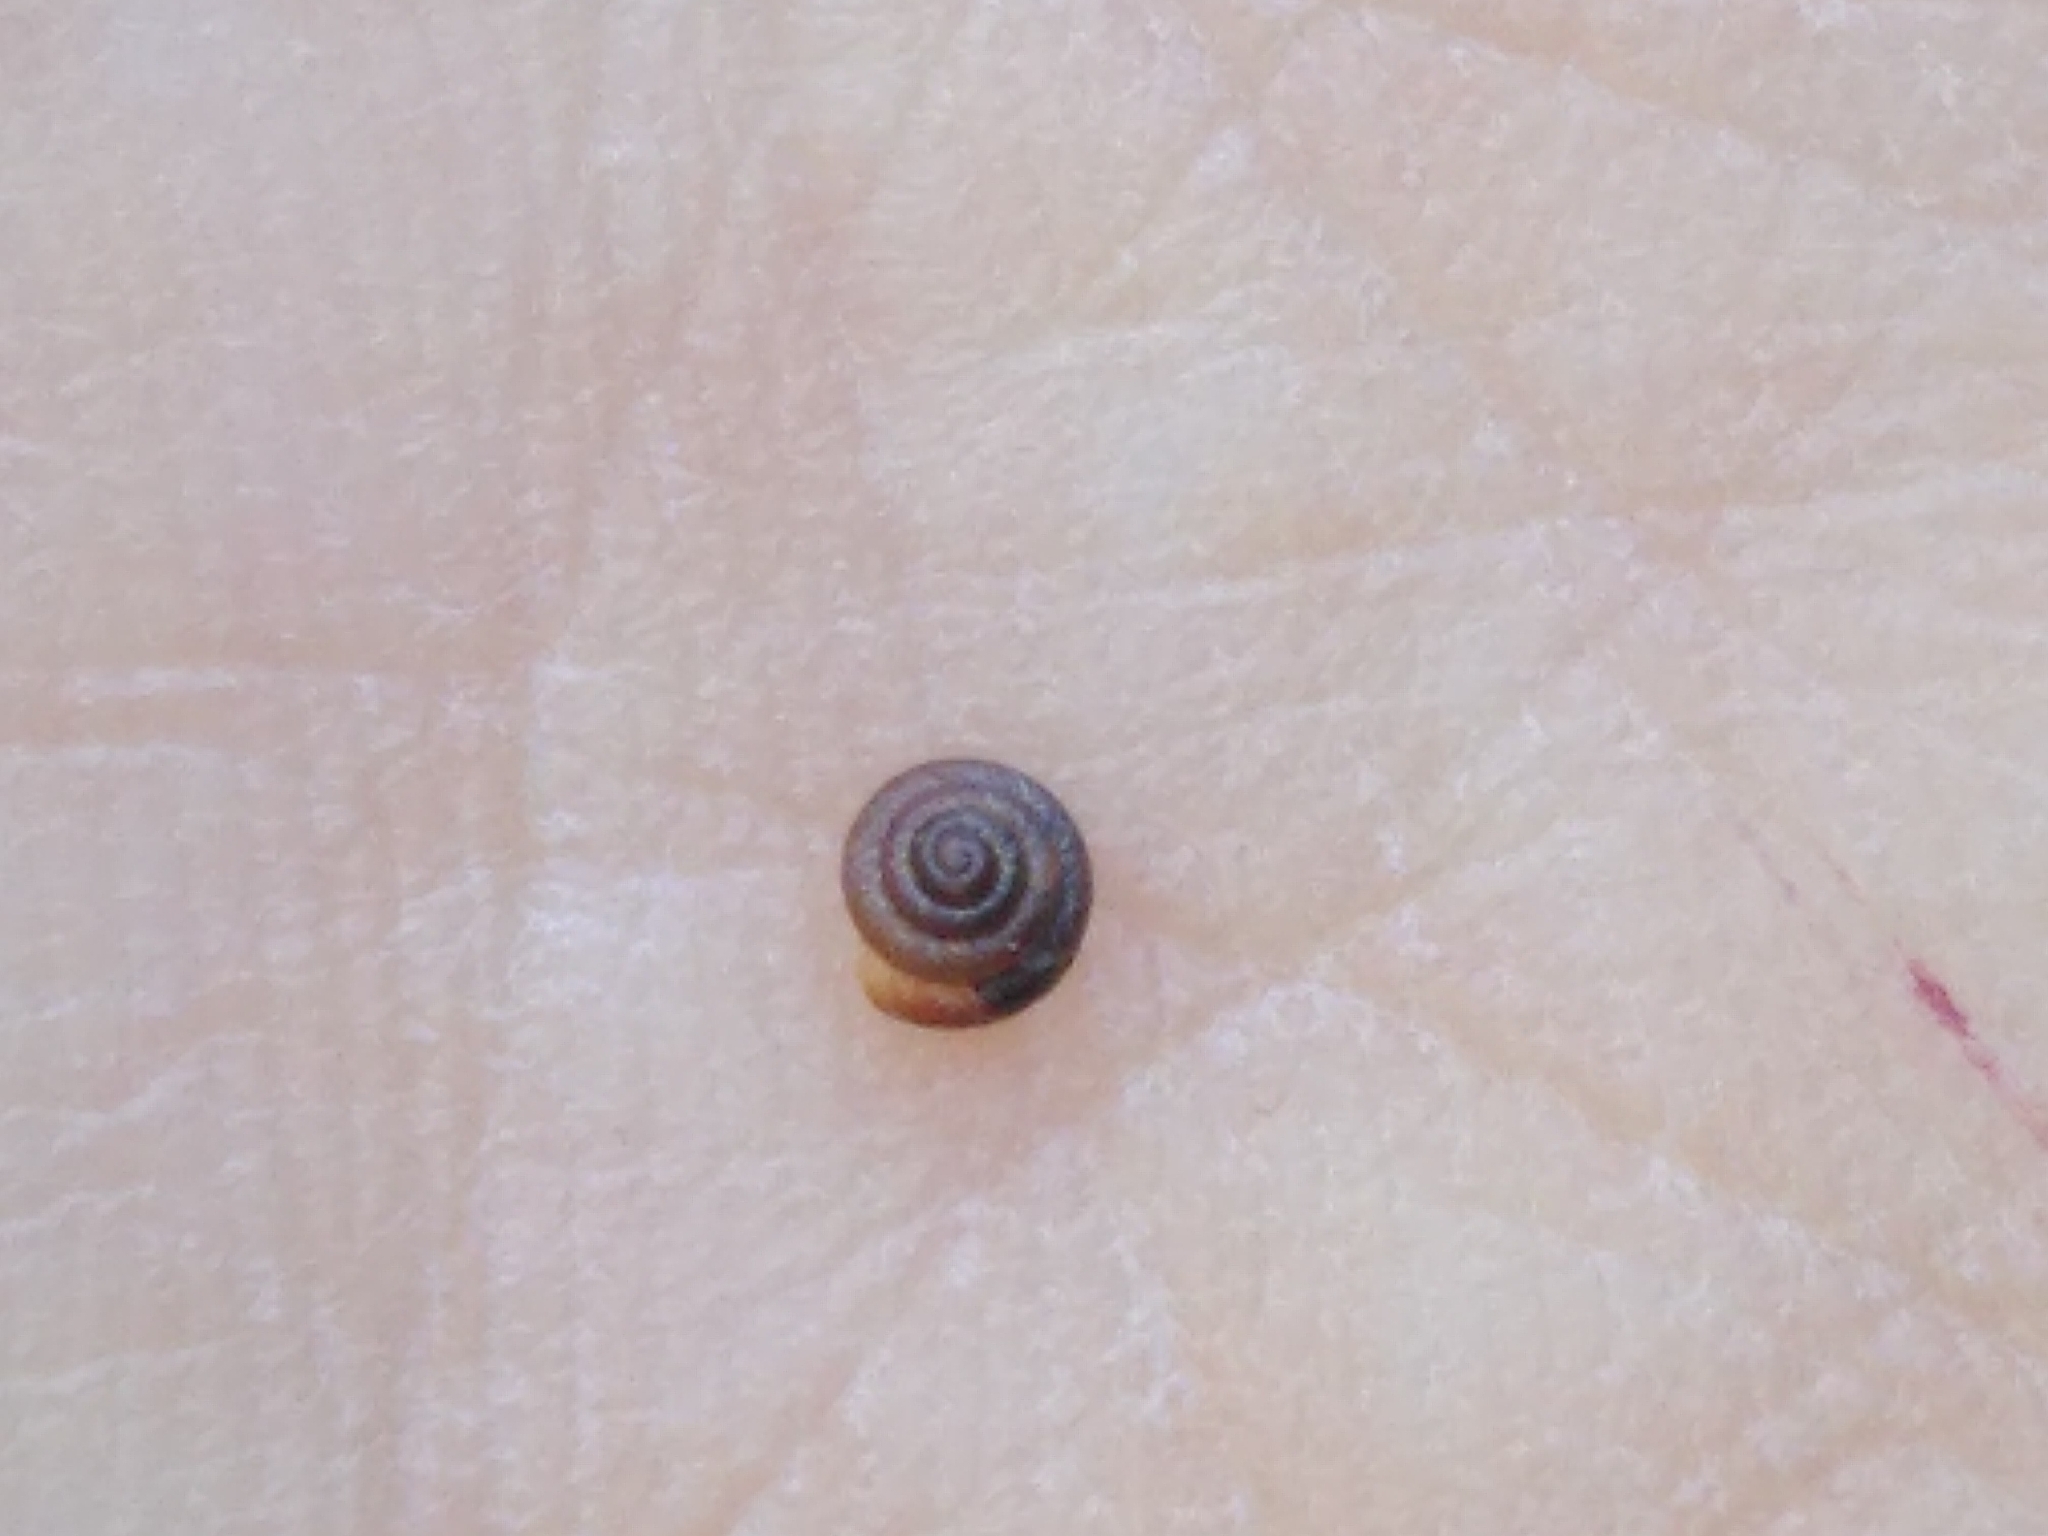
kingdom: Animalia
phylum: Mollusca
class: Gastropoda
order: Stylommatophora
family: Pyramidulidae
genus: Pyramidula
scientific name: Pyramidula pusilla
